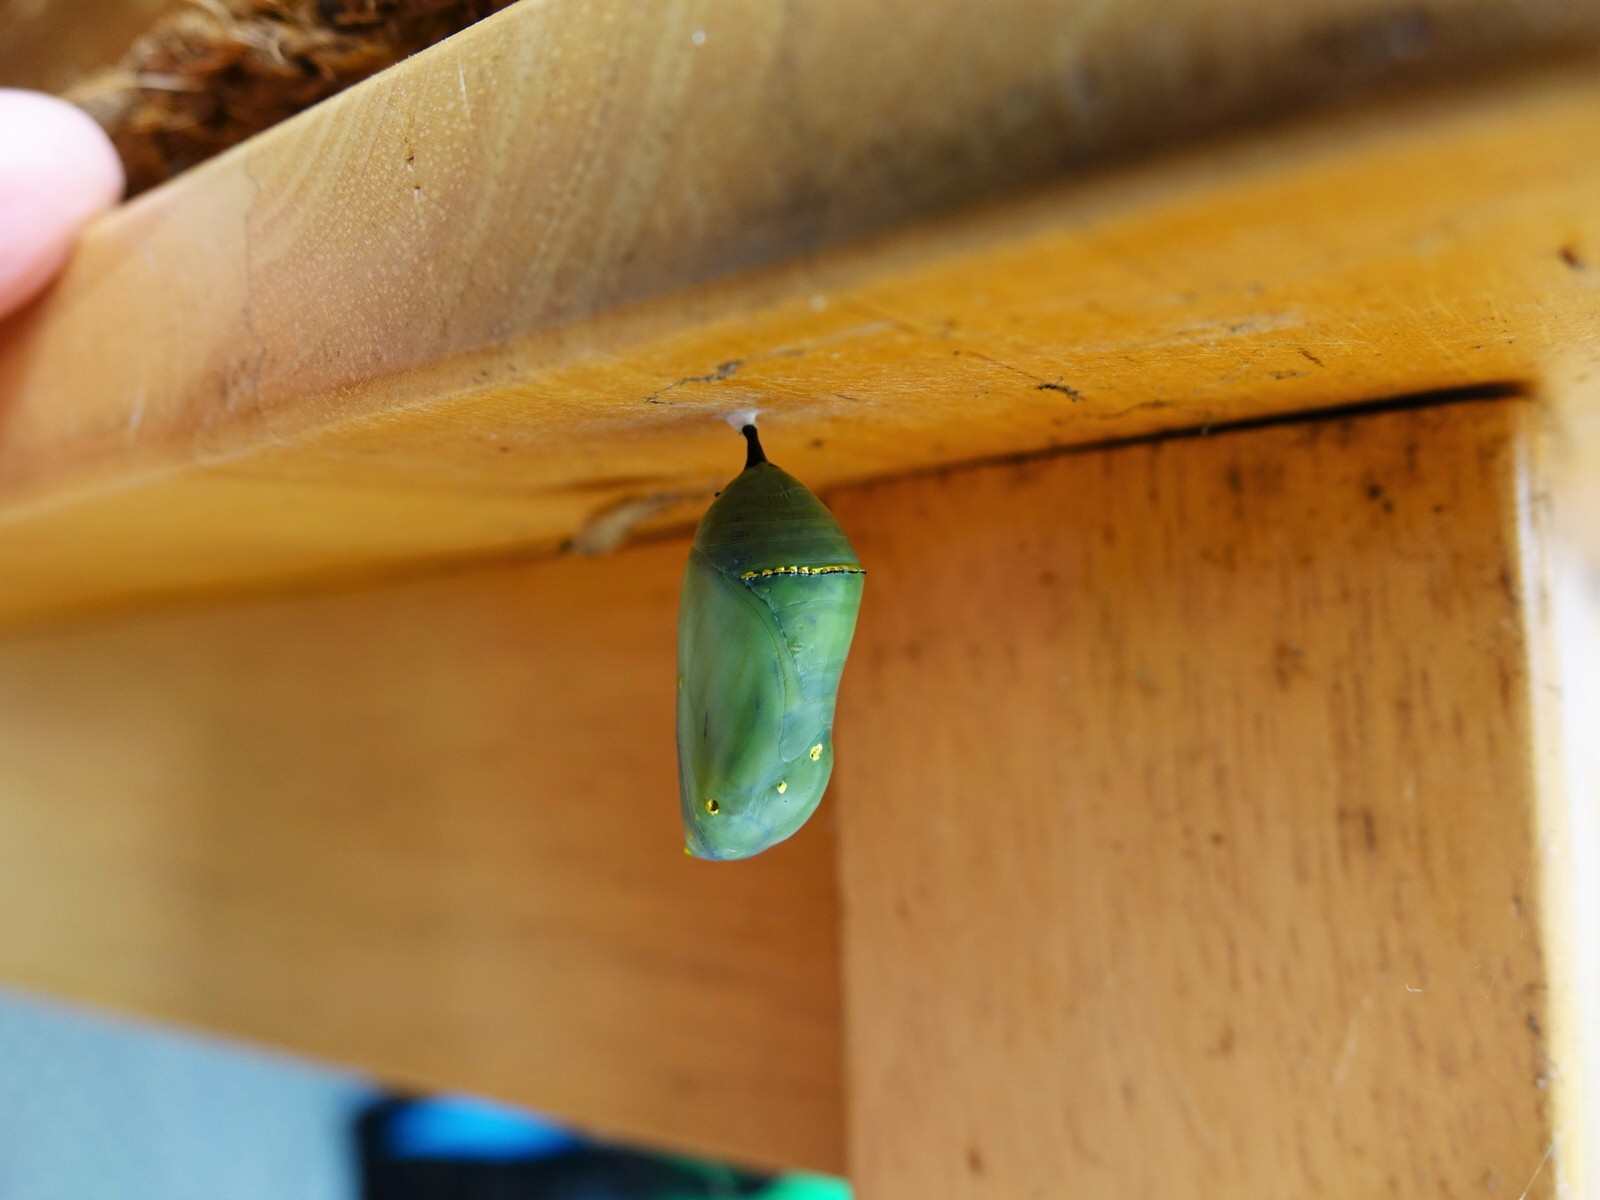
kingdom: Animalia
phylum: Arthropoda
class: Insecta
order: Lepidoptera
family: Nymphalidae
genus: Danaus
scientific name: Danaus plexippus
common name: Monarch
